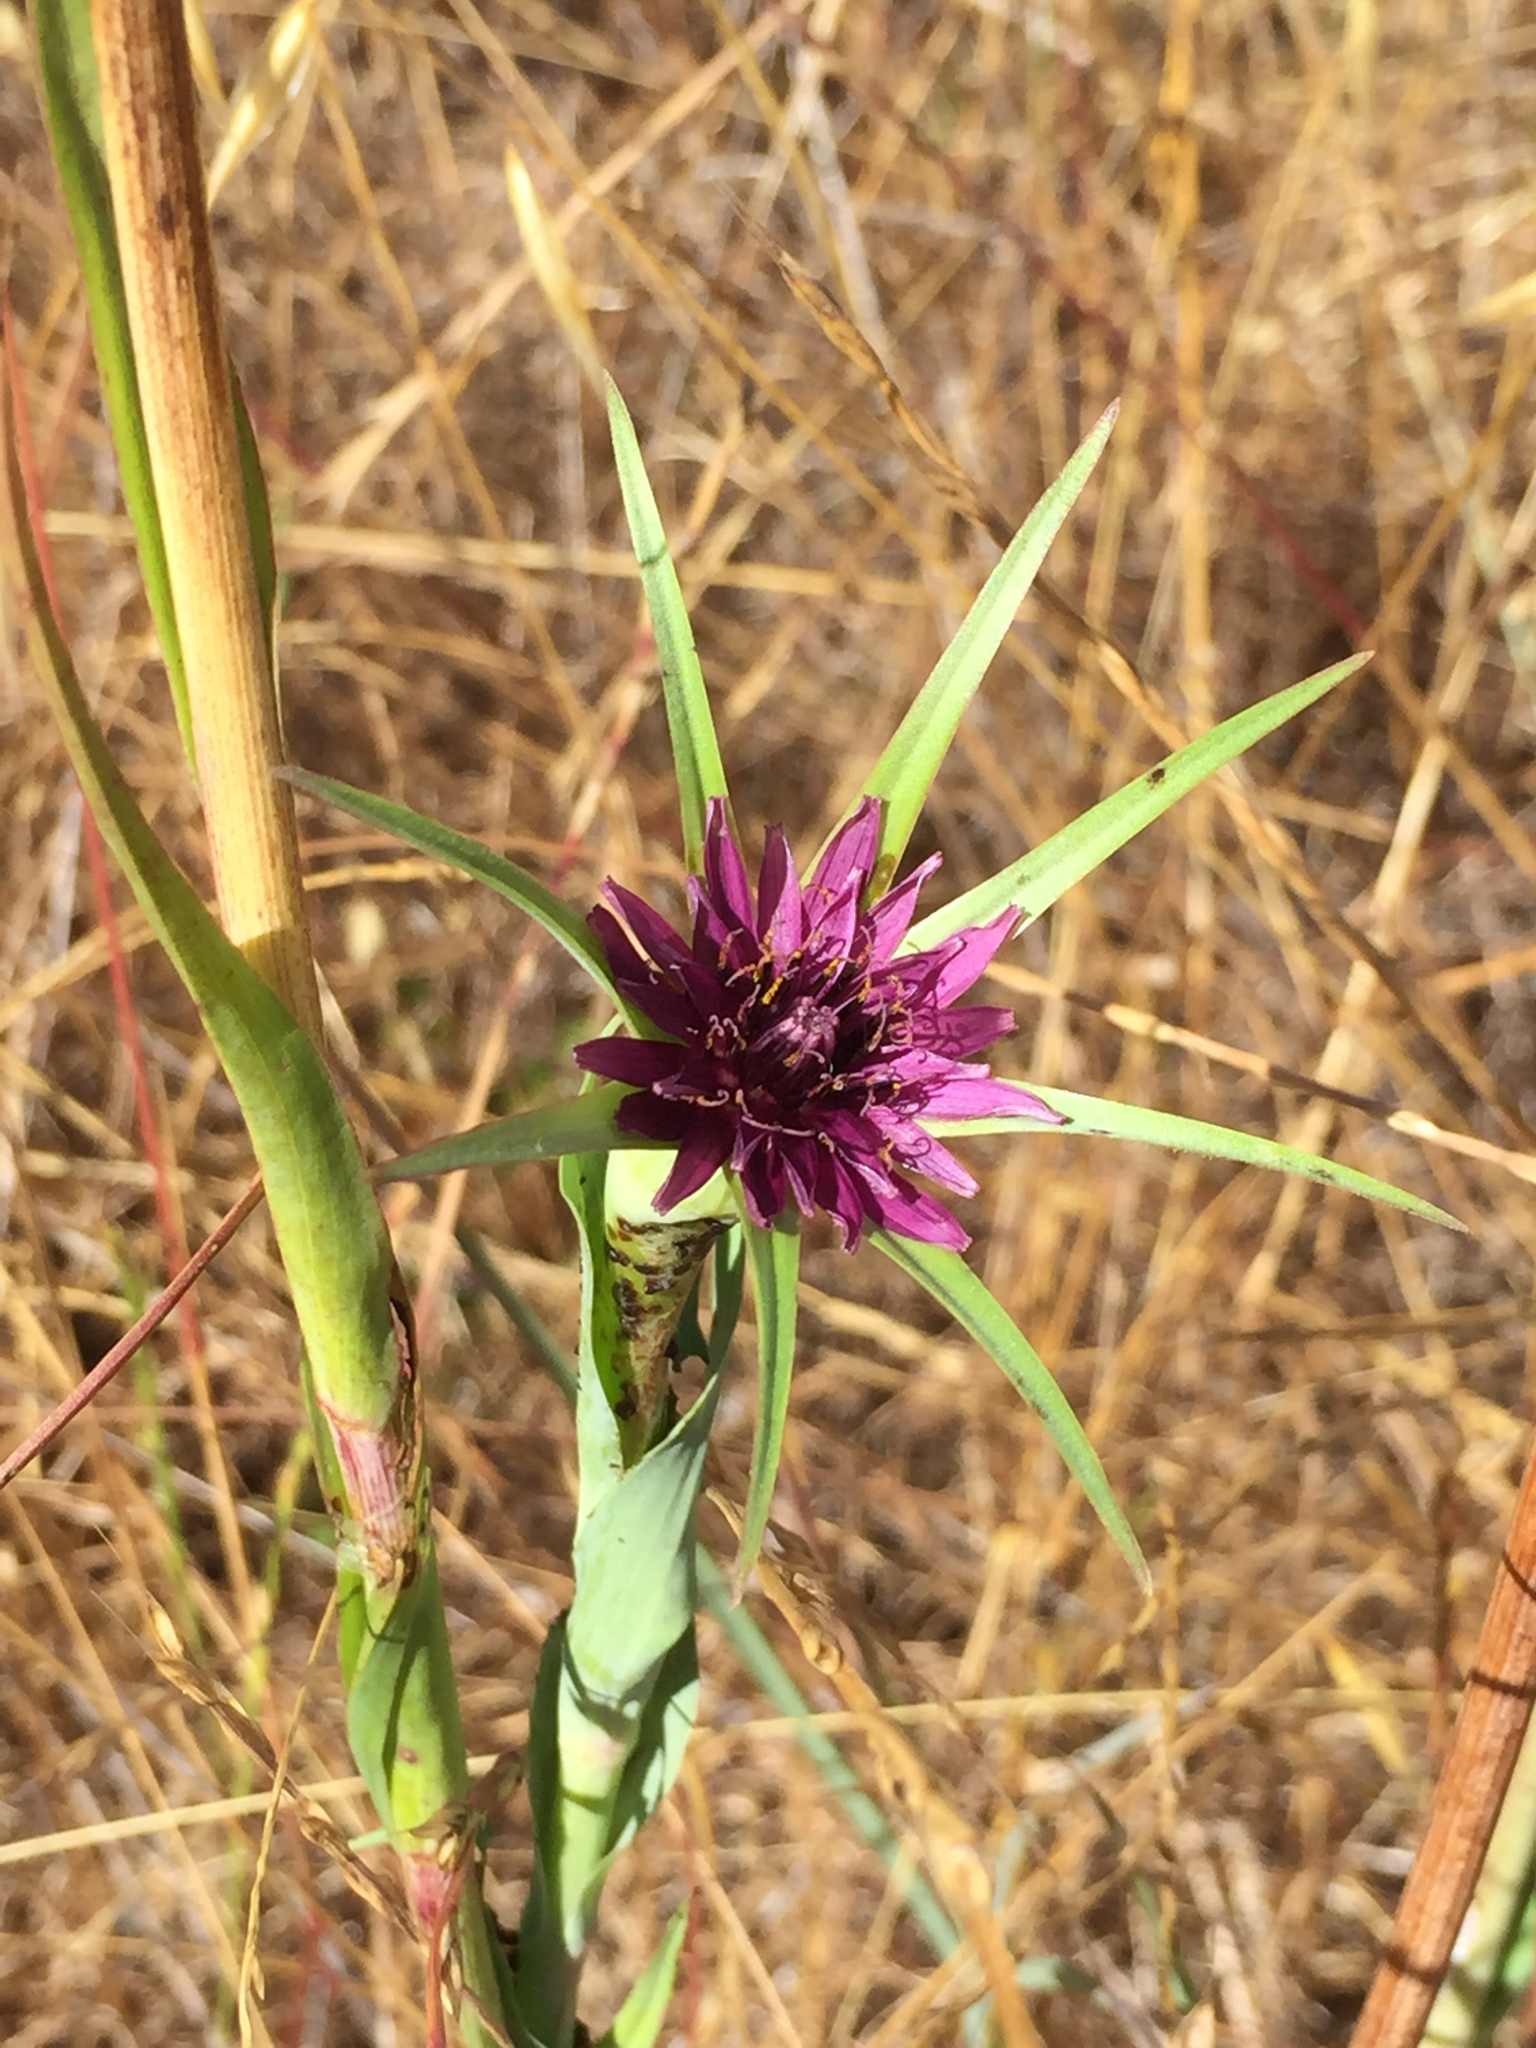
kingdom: Plantae
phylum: Tracheophyta
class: Magnoliopsida
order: Asterales
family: Asteraceae
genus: Tragopogon
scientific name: Tragopogon porrifolius
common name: Salsify
